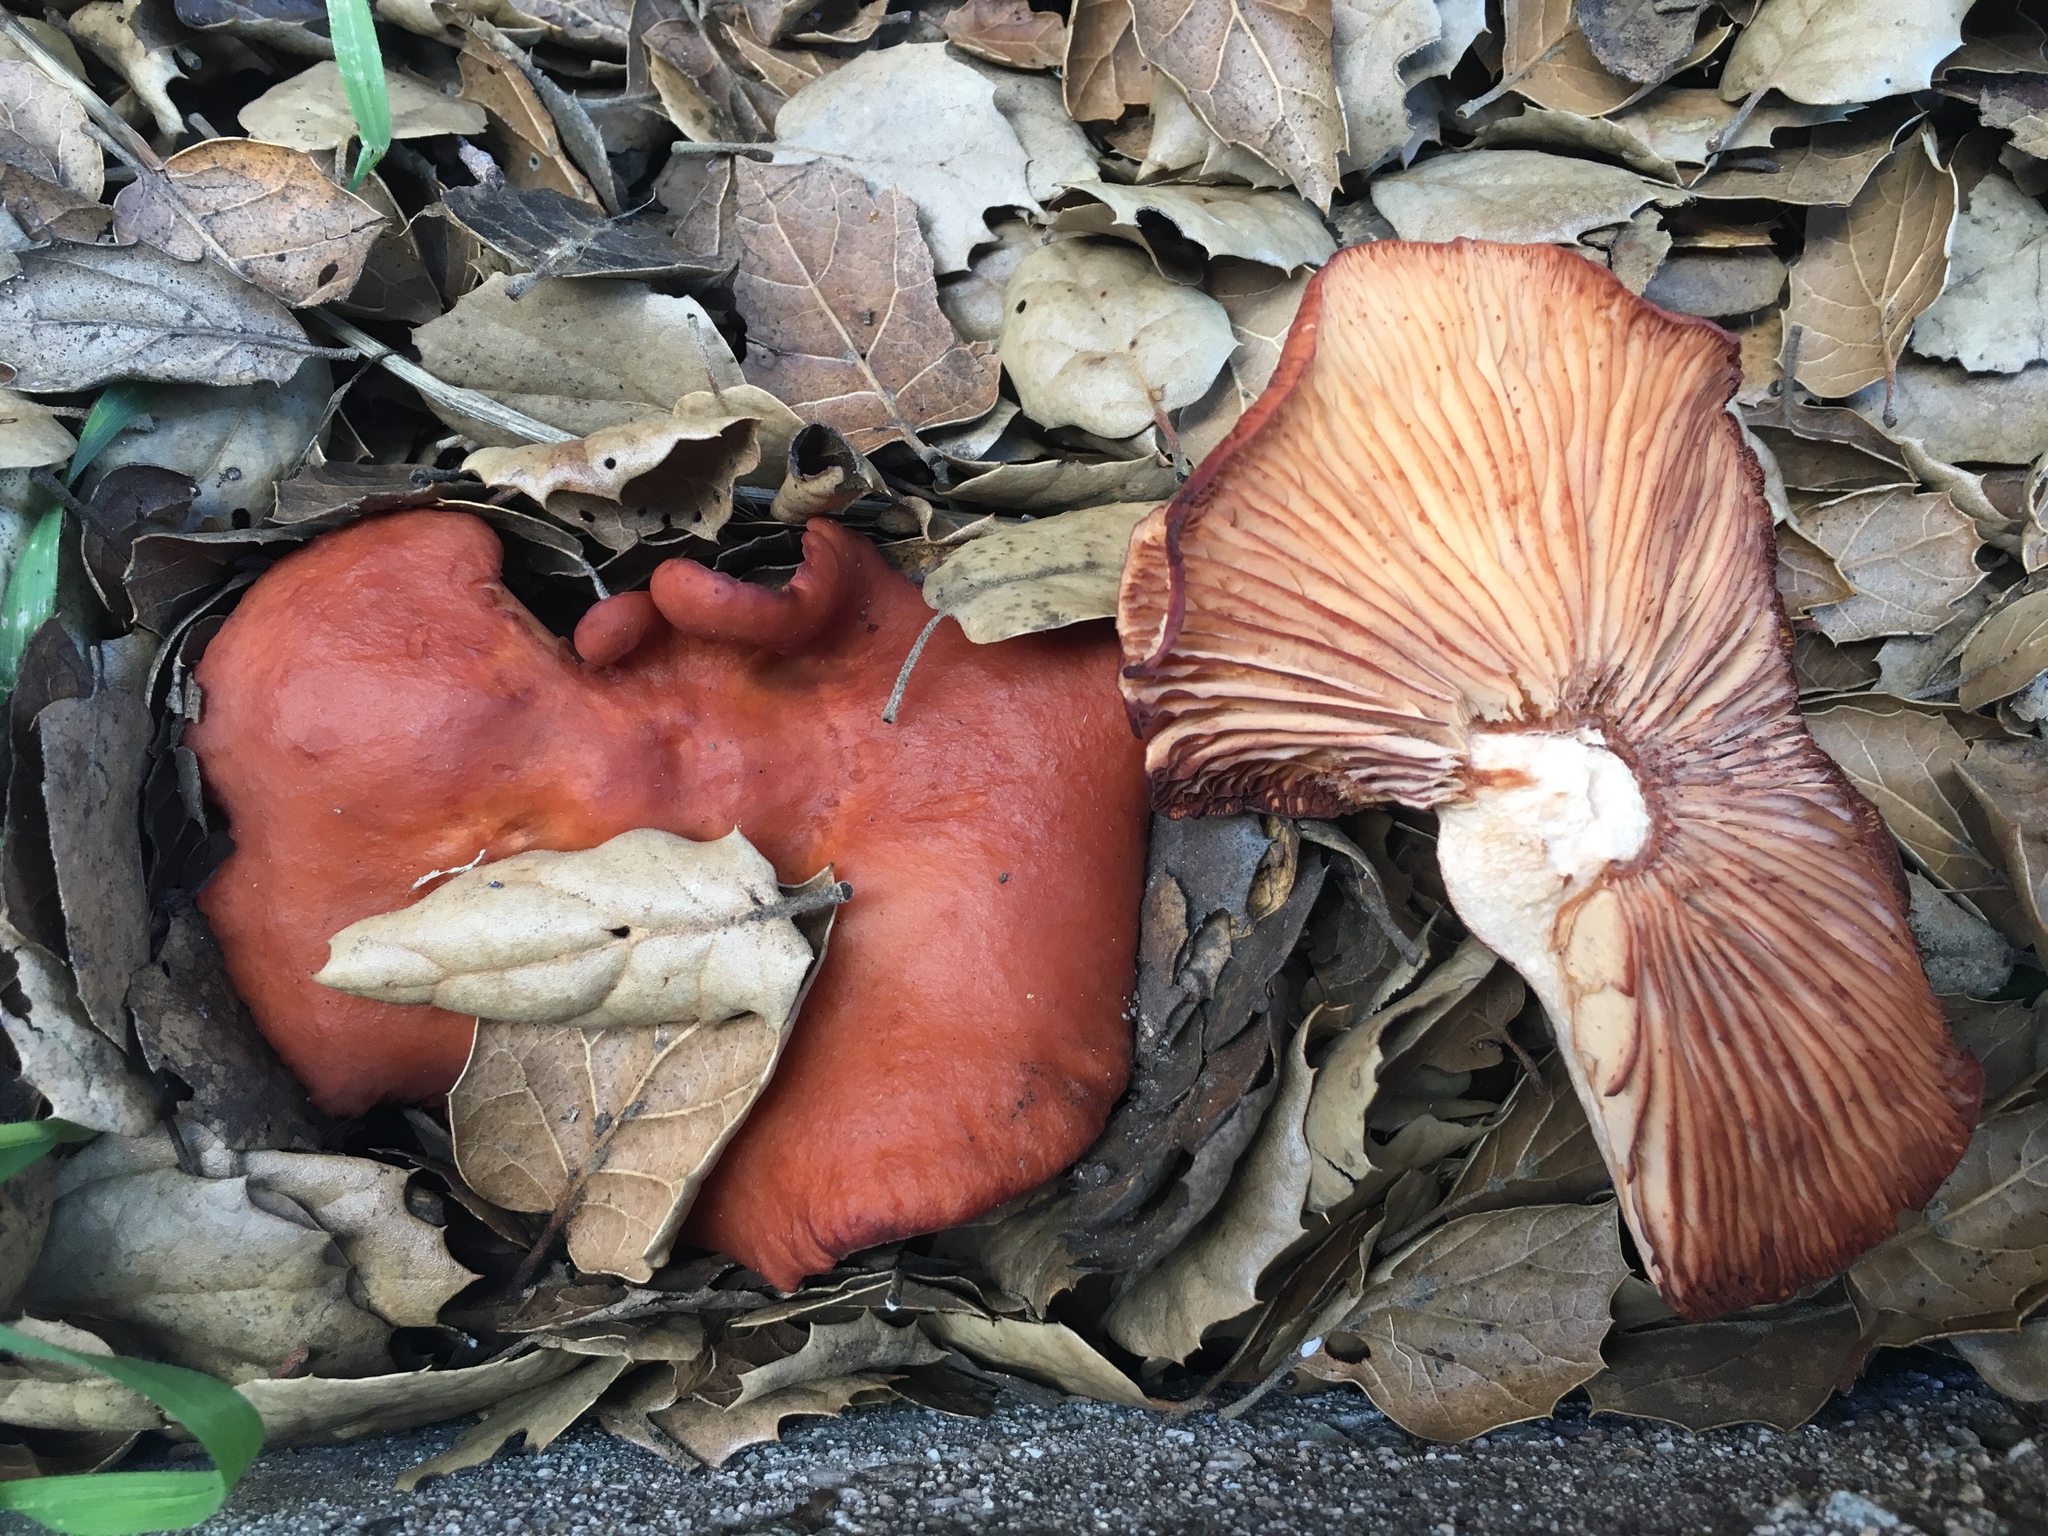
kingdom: Fungi
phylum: Basidiomycota
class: Agaricomycetes
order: Russulales
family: Russulaceae
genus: Lactarius
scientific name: Lactarius rufulus
